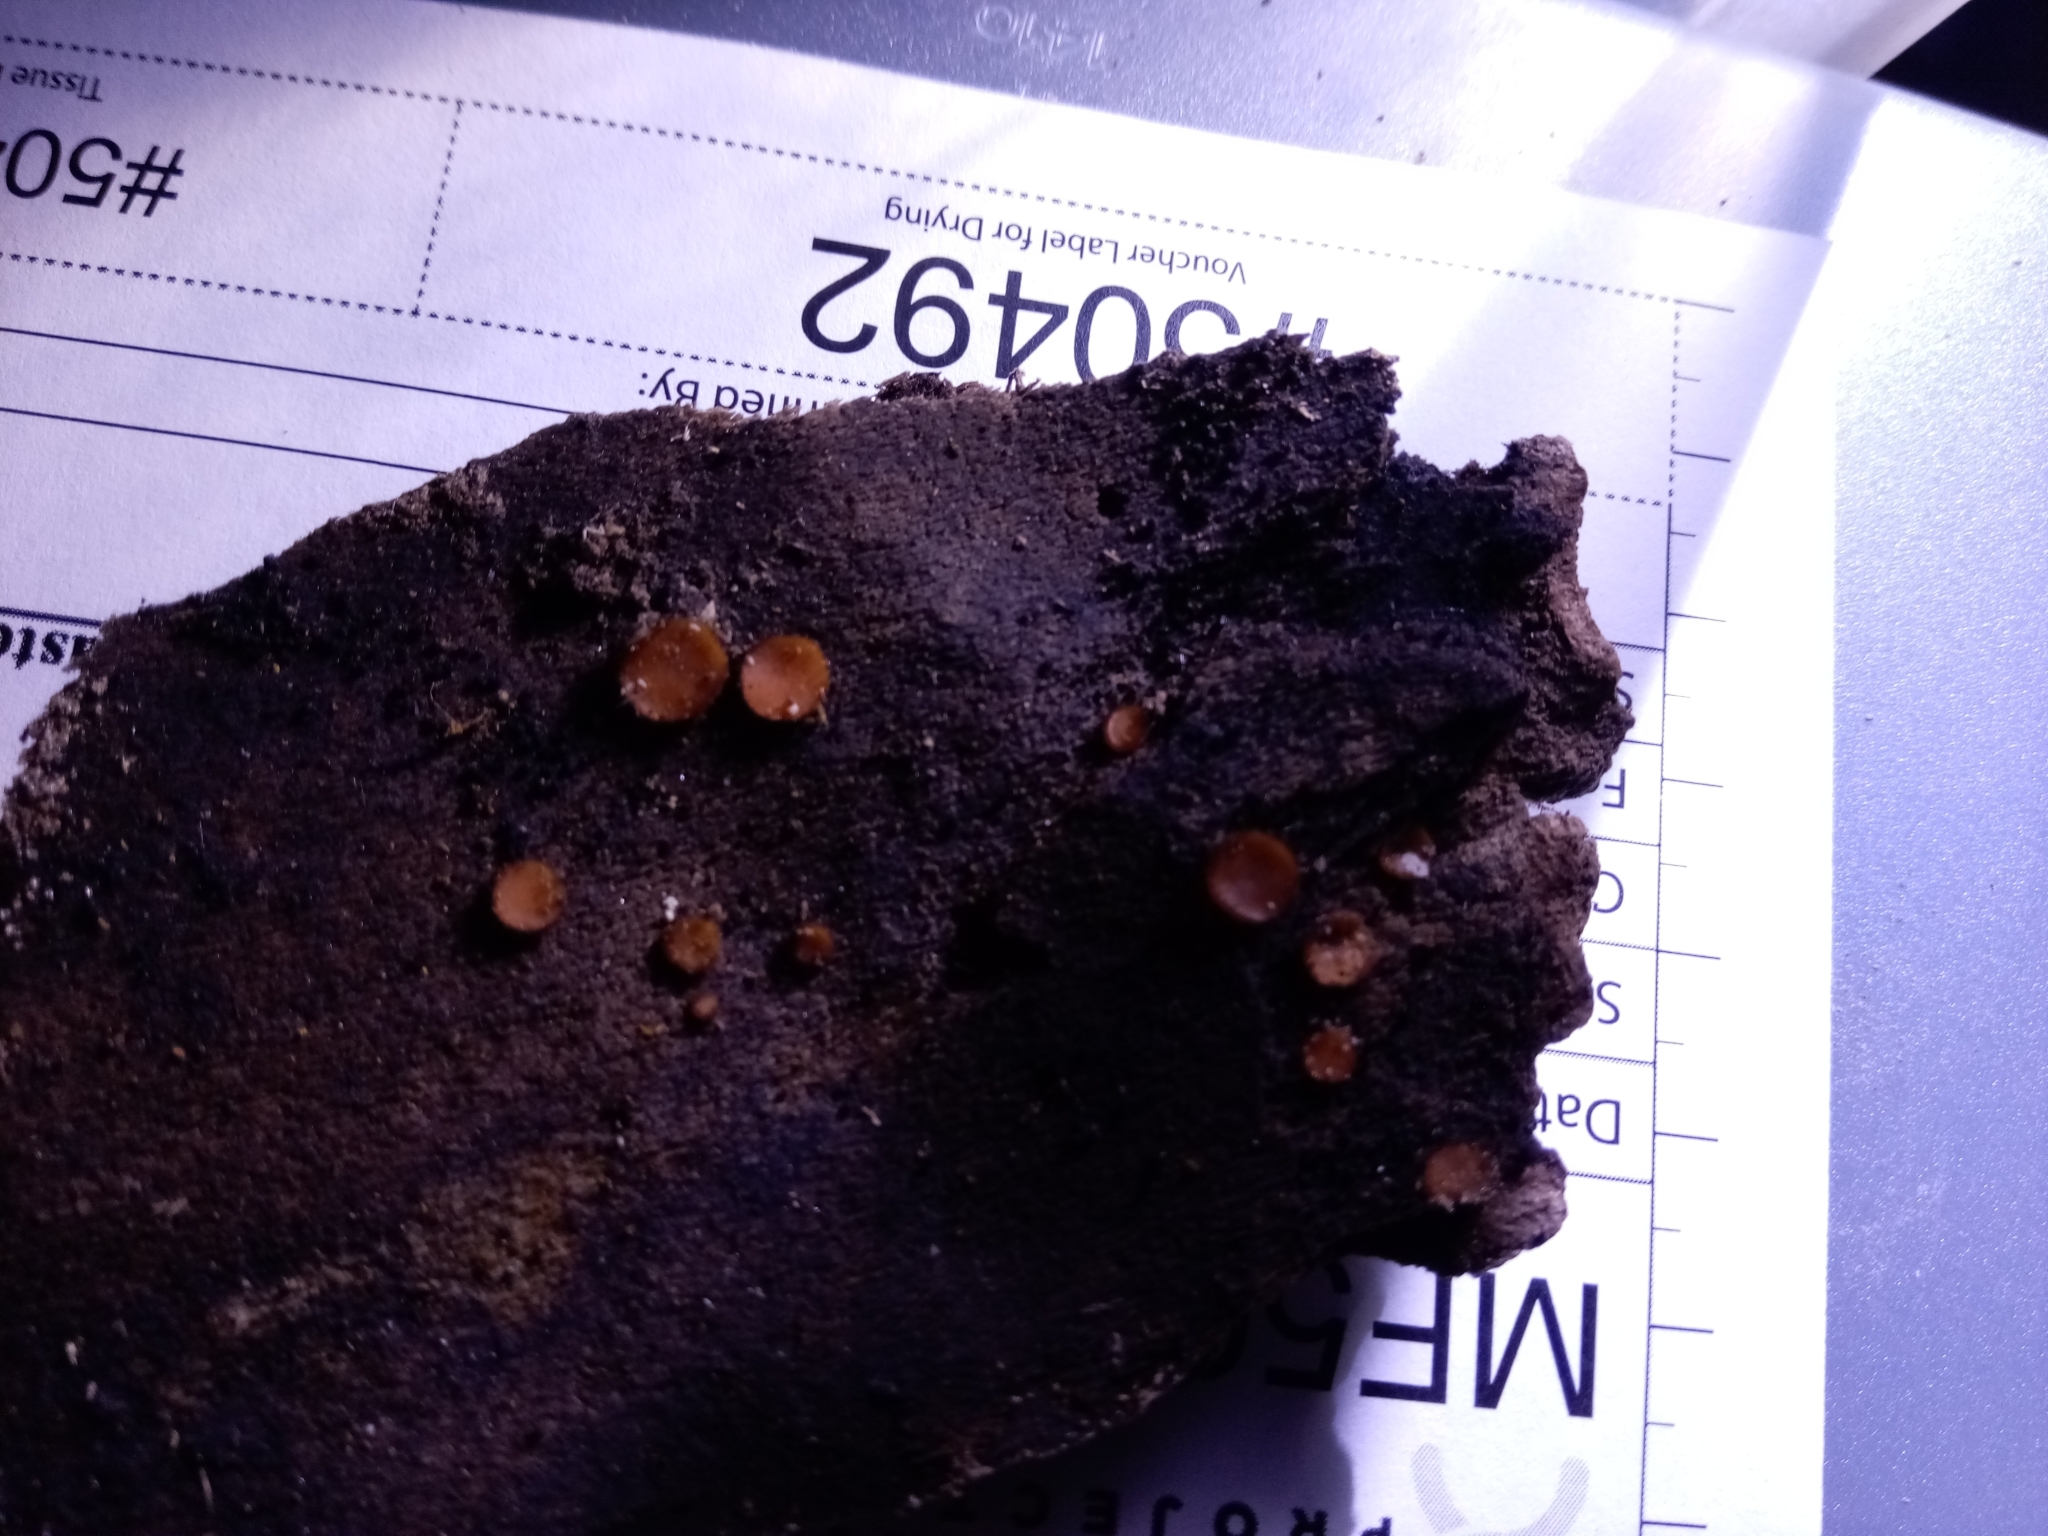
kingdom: Fungi
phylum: Ascomycota
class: Pezizomycetes
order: Pezizales
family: Pyronemataceae
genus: Scutellinia
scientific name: Scutellinia crinita
